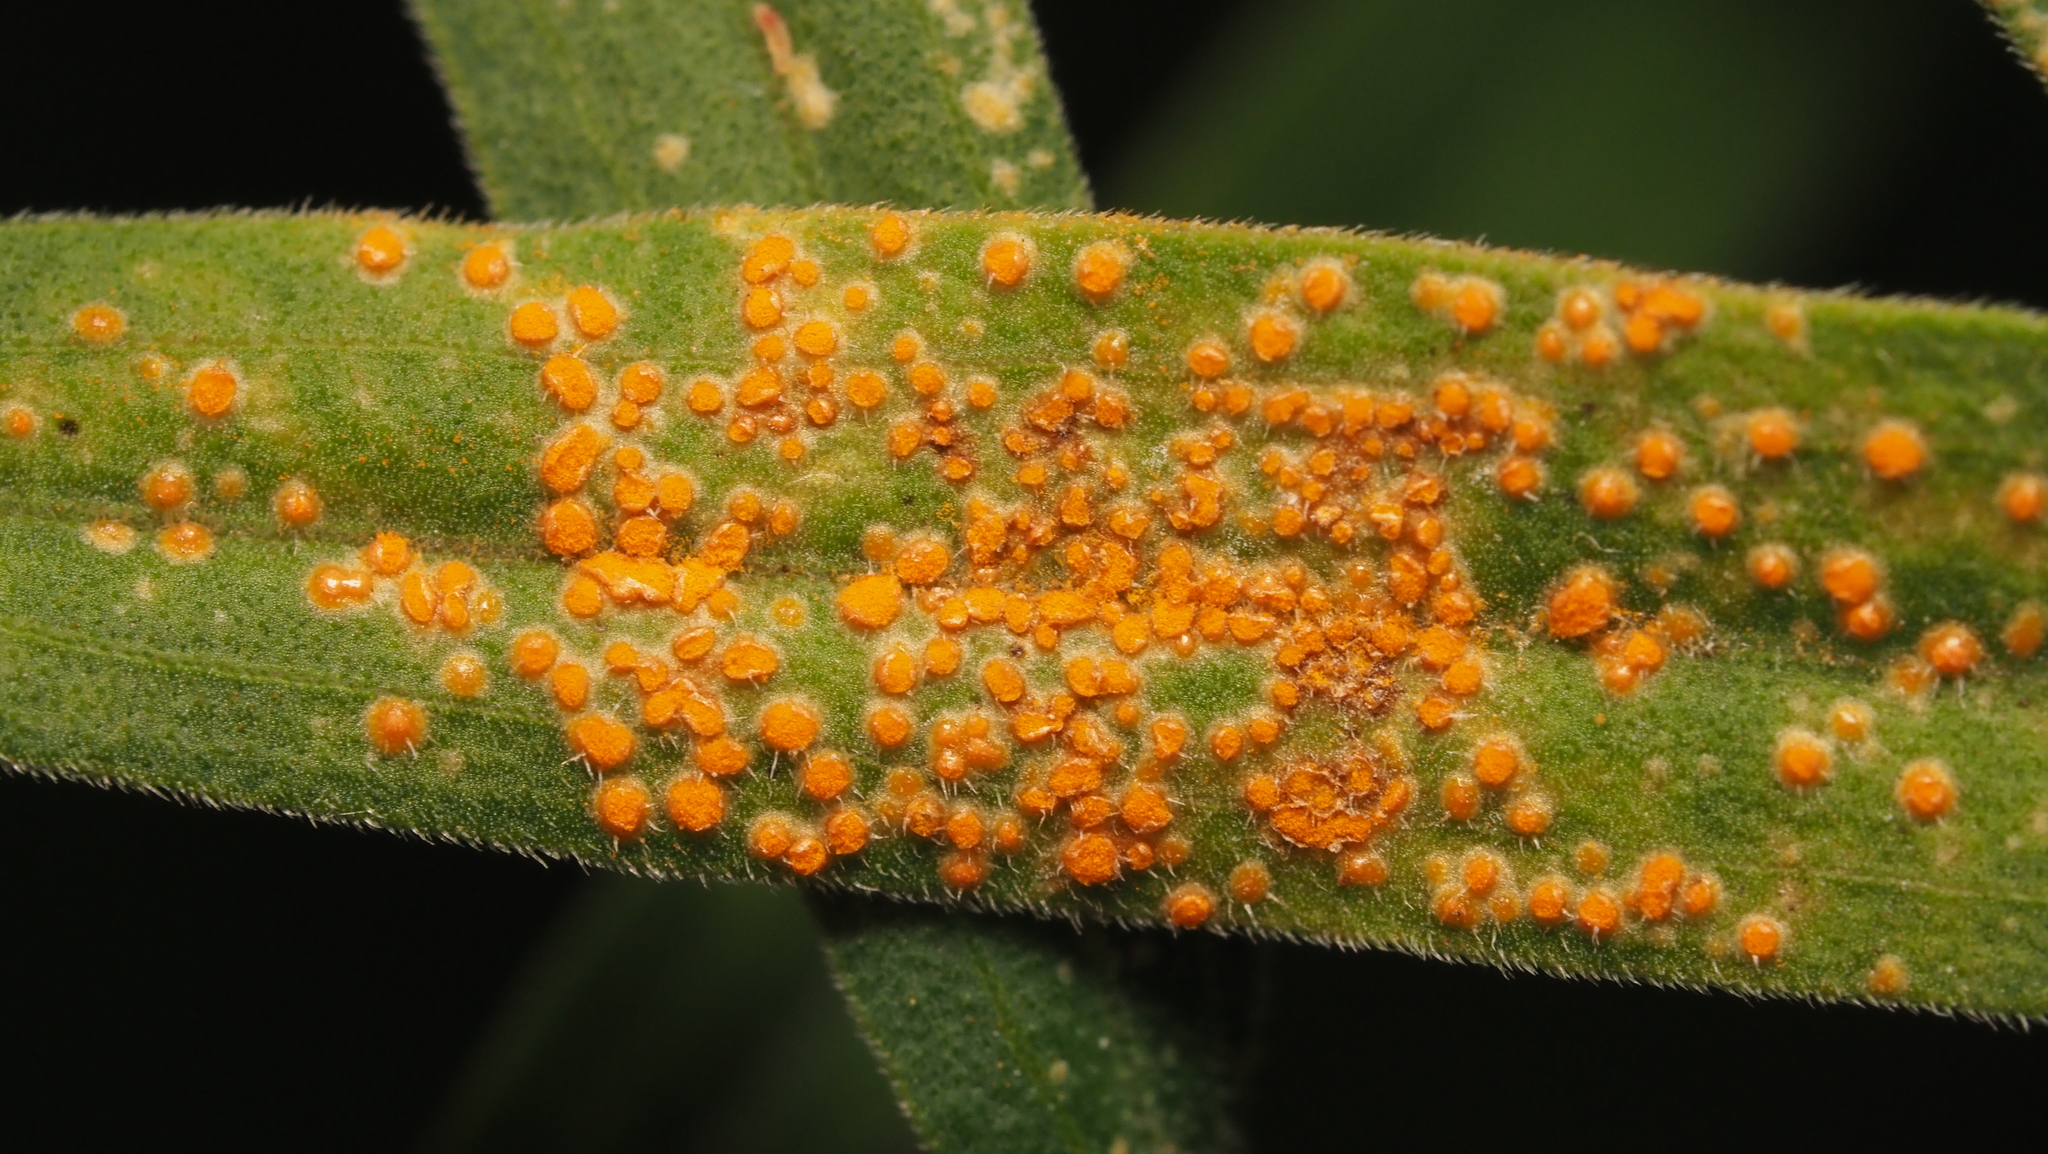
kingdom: Fungi
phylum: Basidiomycota
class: Pucciniomycetes
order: Pucciniales
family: Coleosporiaceae
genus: Coleosporium
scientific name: Coleosporium asterum
